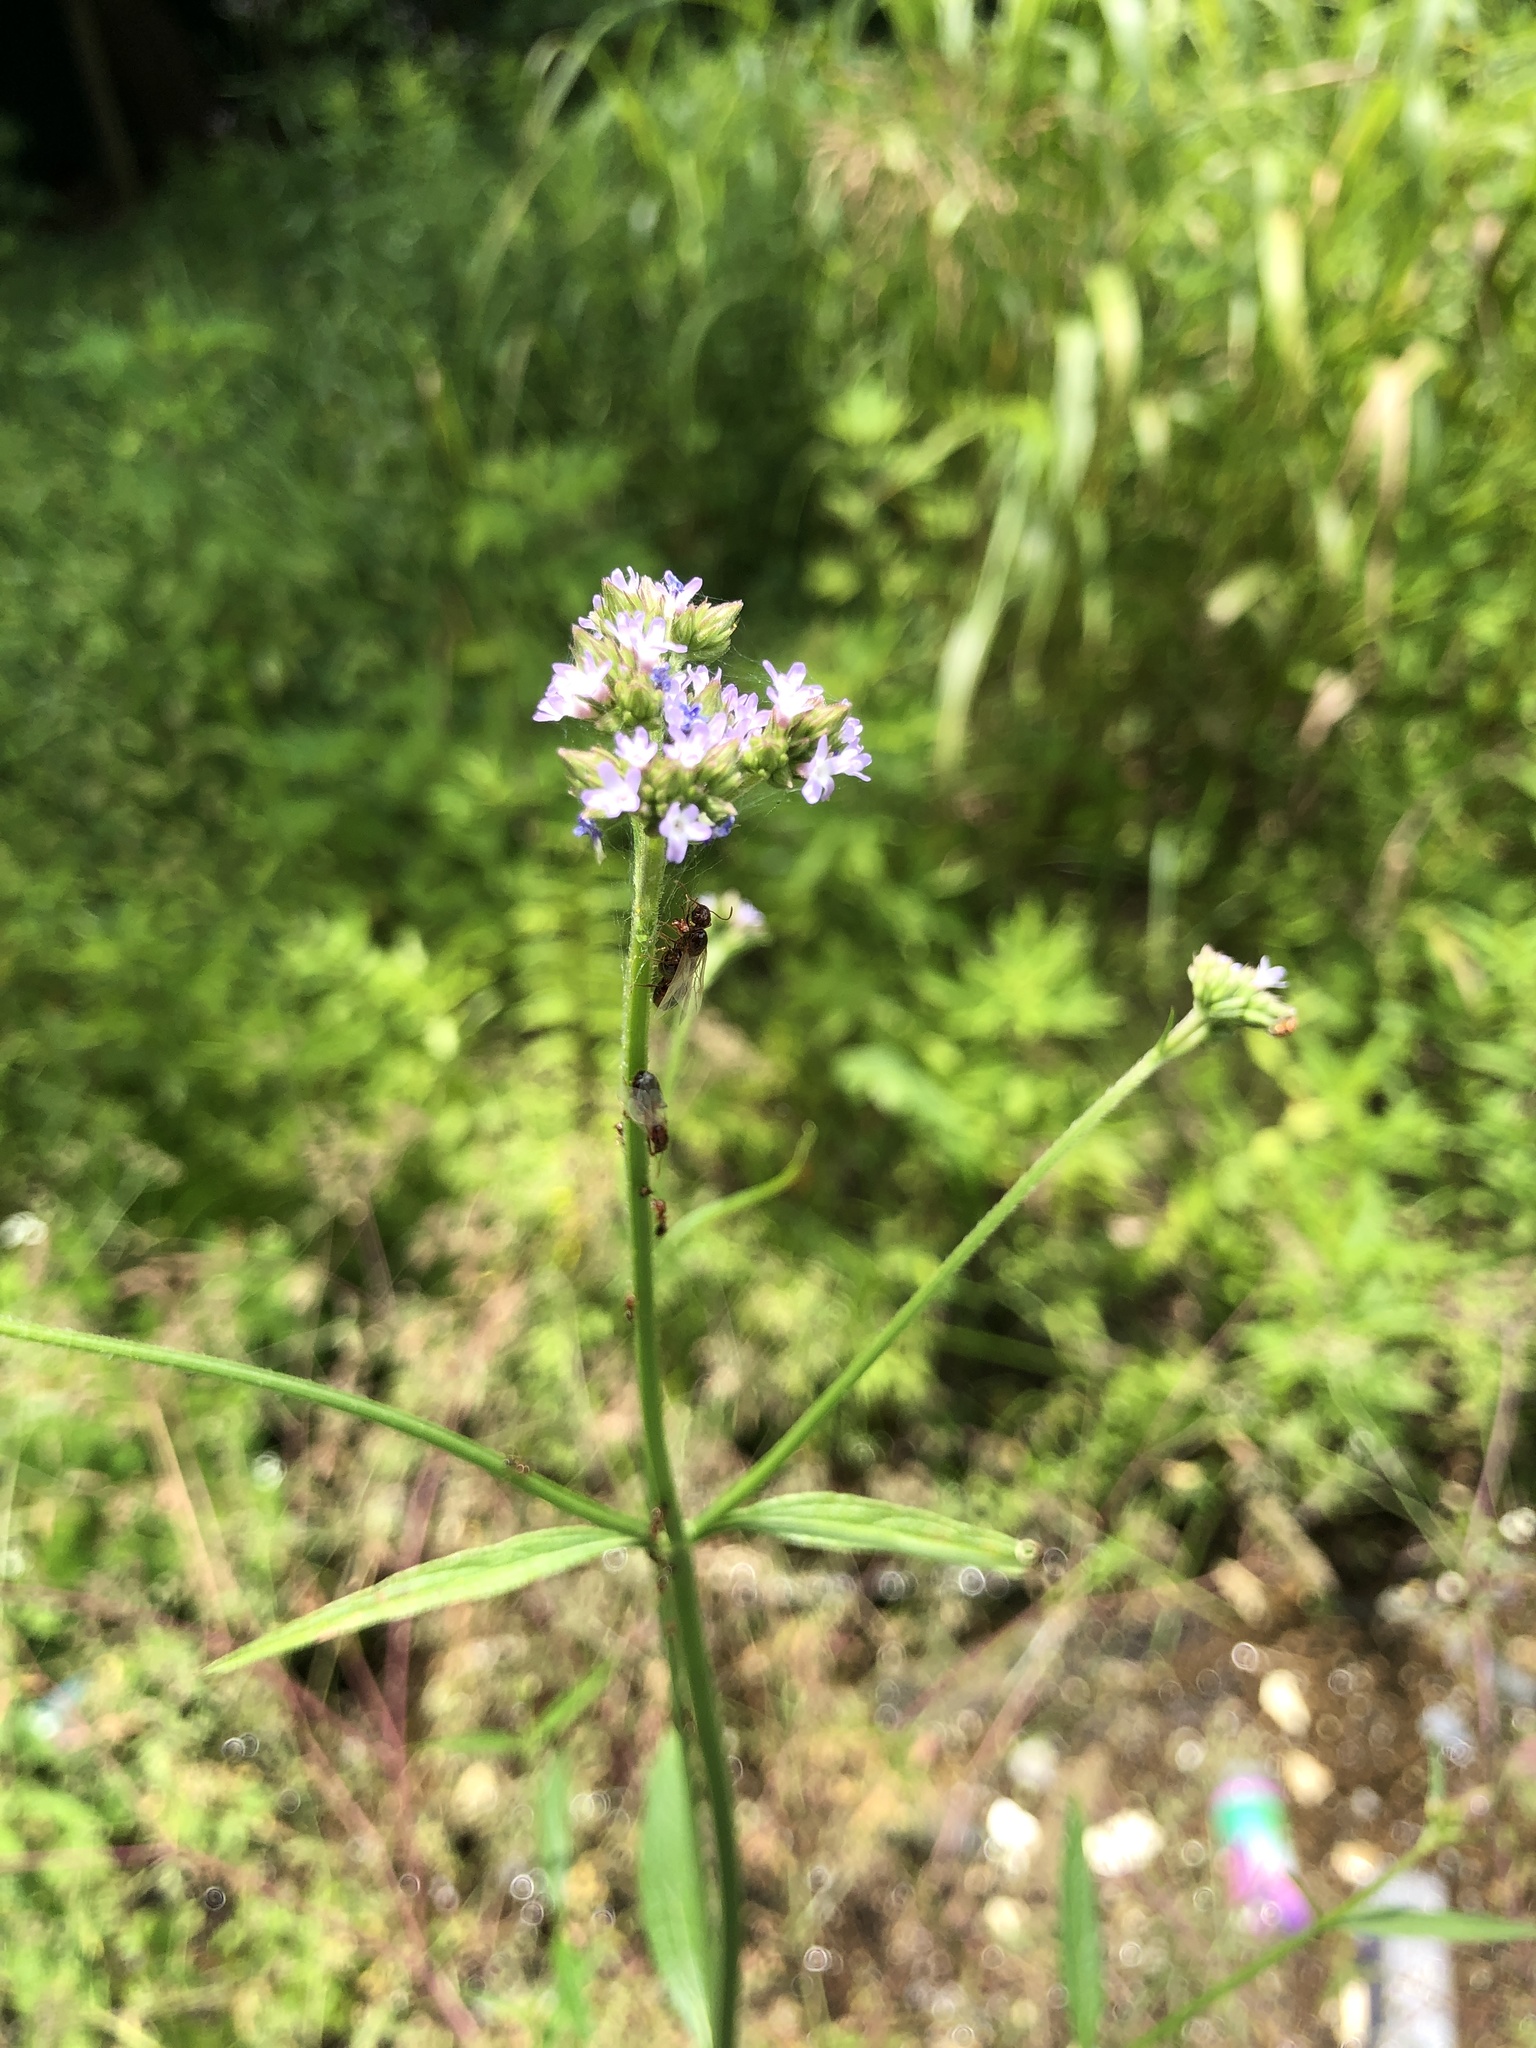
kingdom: Plantae
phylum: Tracheophyta
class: Magnoliopsida
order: Lamiales
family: Verbenaceae
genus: Verbena
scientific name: Verbena brasiliensis
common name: Brazilian vervain
